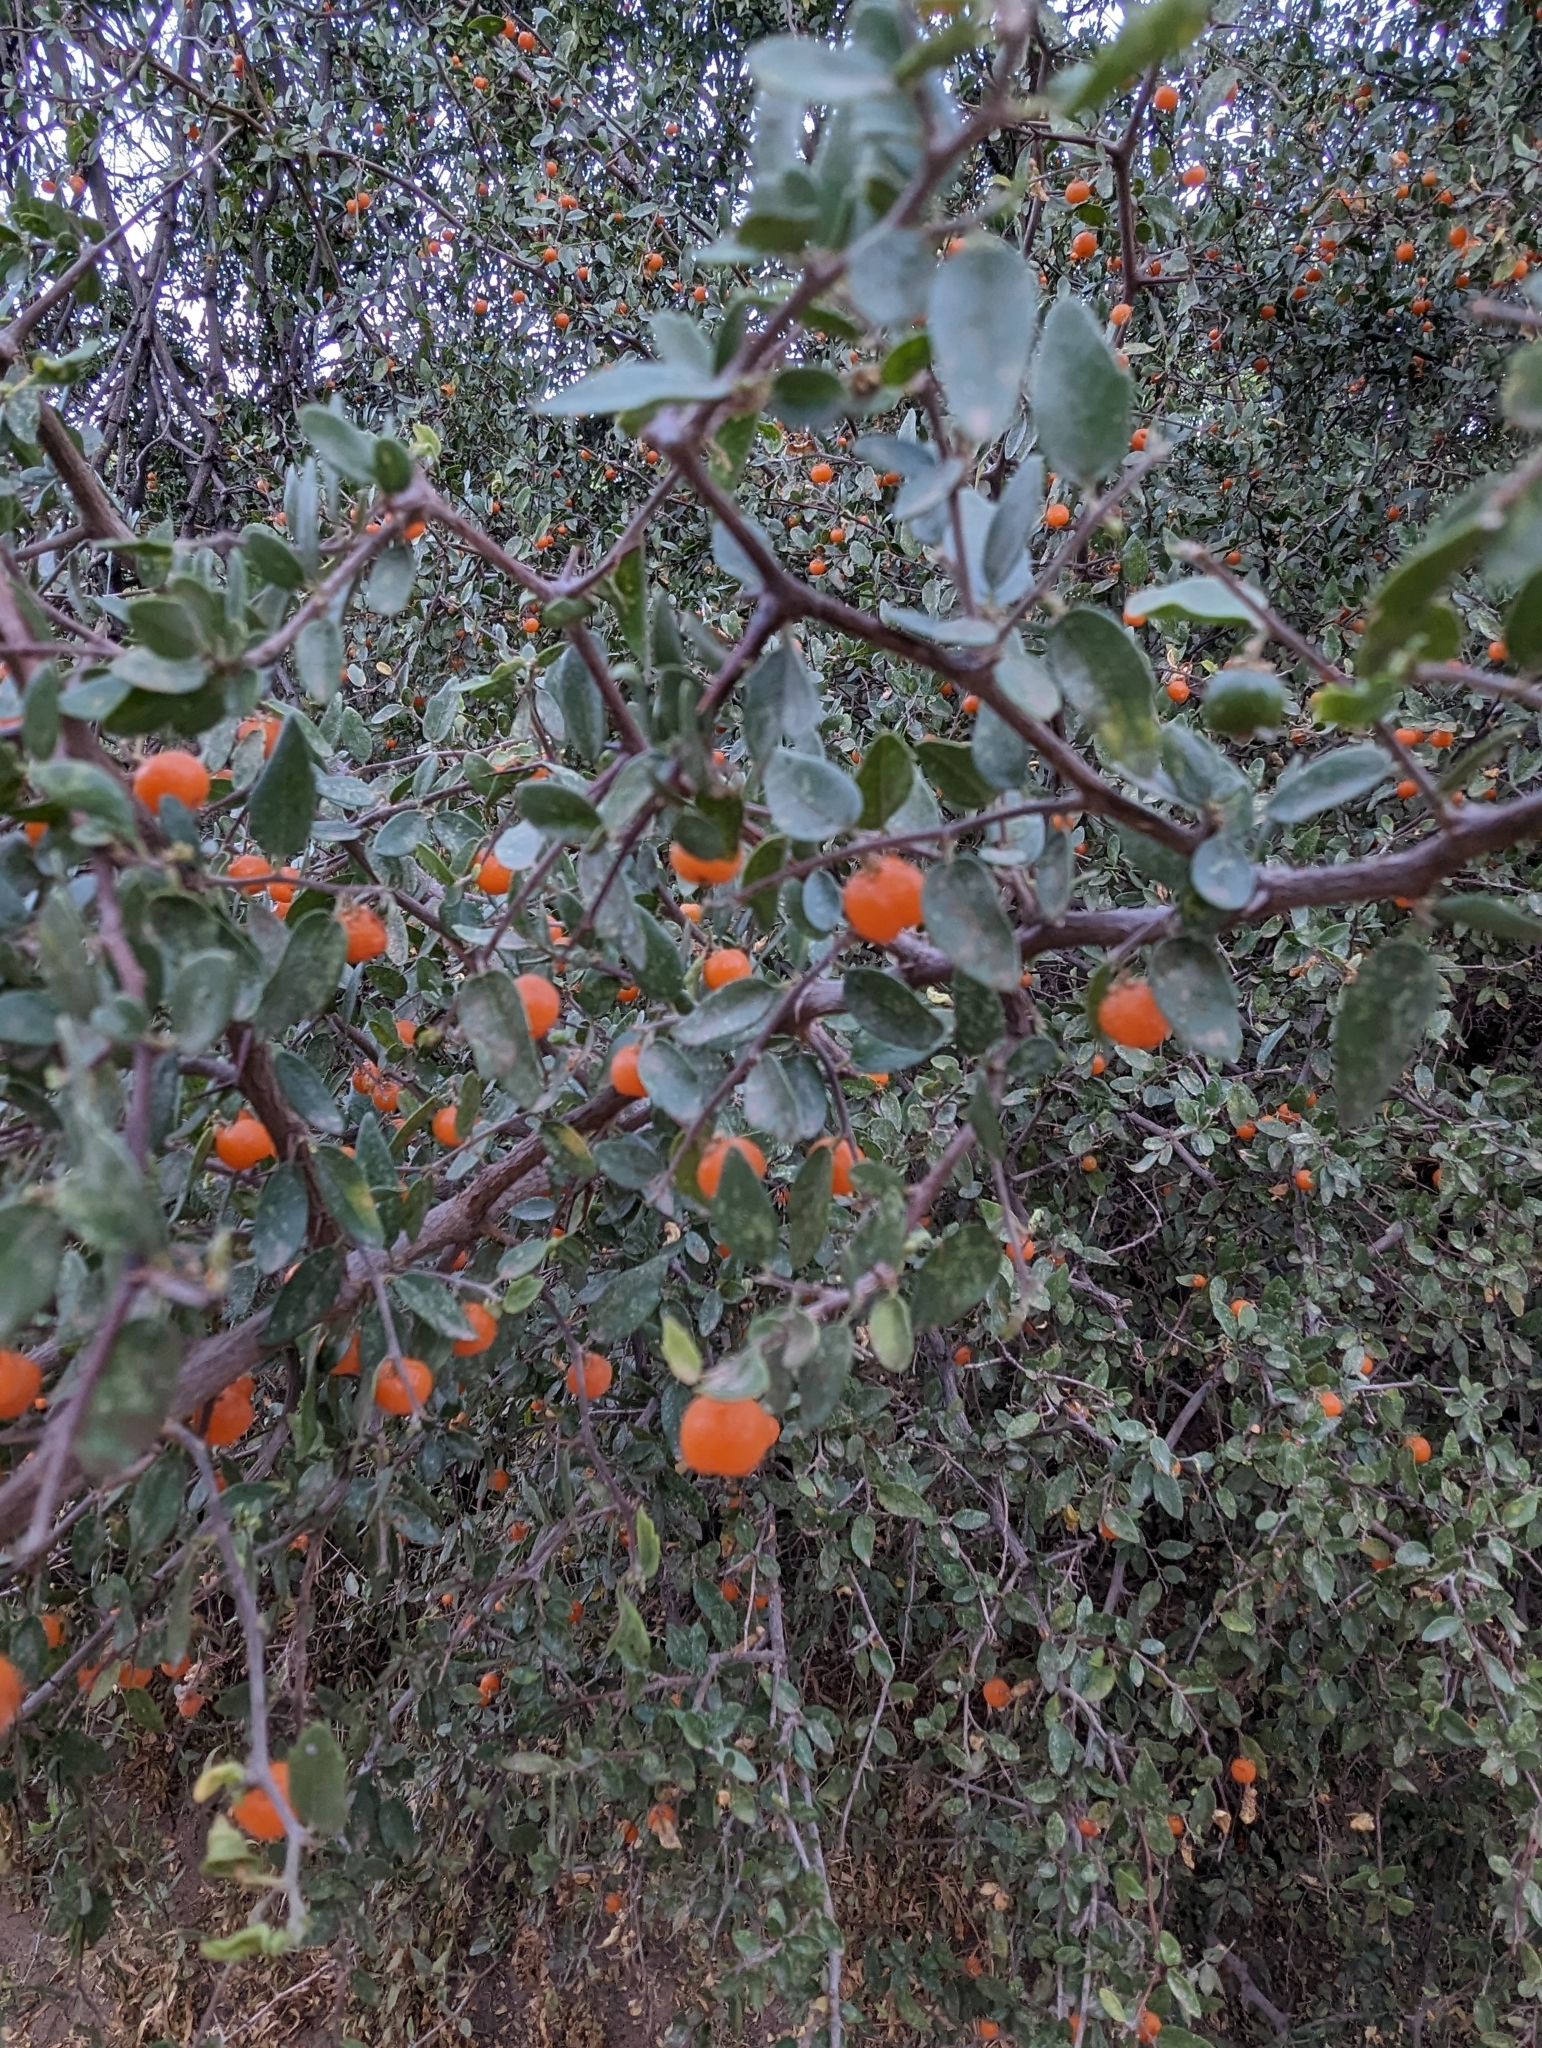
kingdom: Plantae
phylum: Tracheophyta
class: Magnoliopsida
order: Rosales
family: Cannabaceae
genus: Celtis
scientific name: Celtis pallida
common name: Desert hackberry
